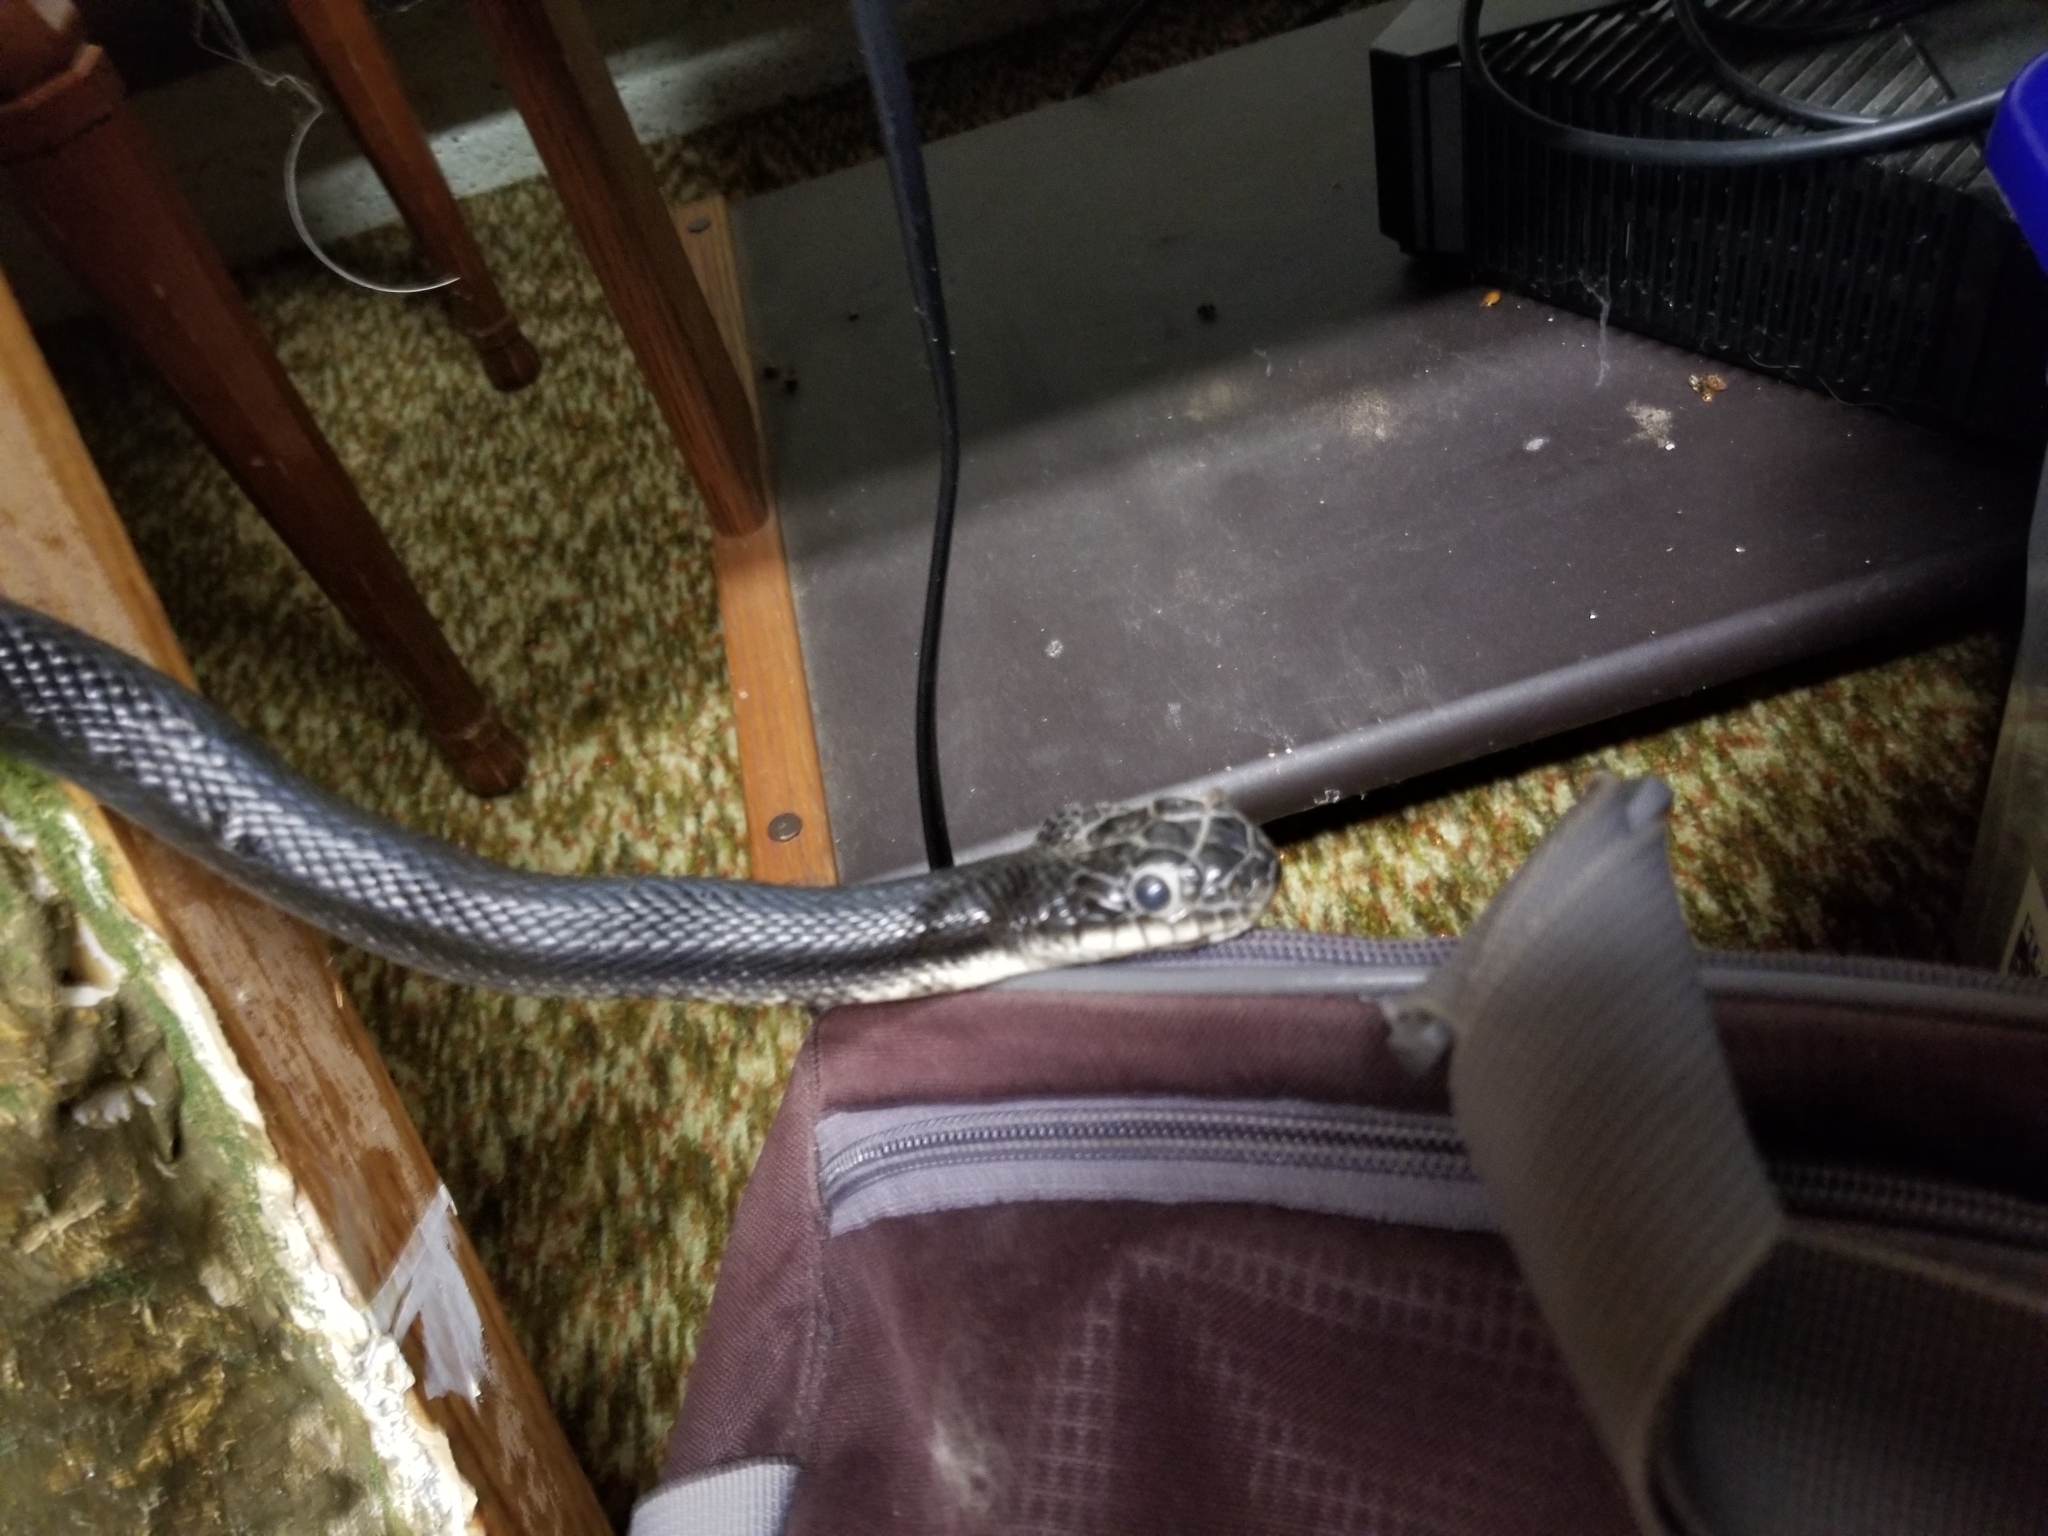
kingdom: Animalia
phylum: Chordata
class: Squamata
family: Colubridae
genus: Pantherophis
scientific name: Pantherophis alleghaniensis
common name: Eastern rat snake
